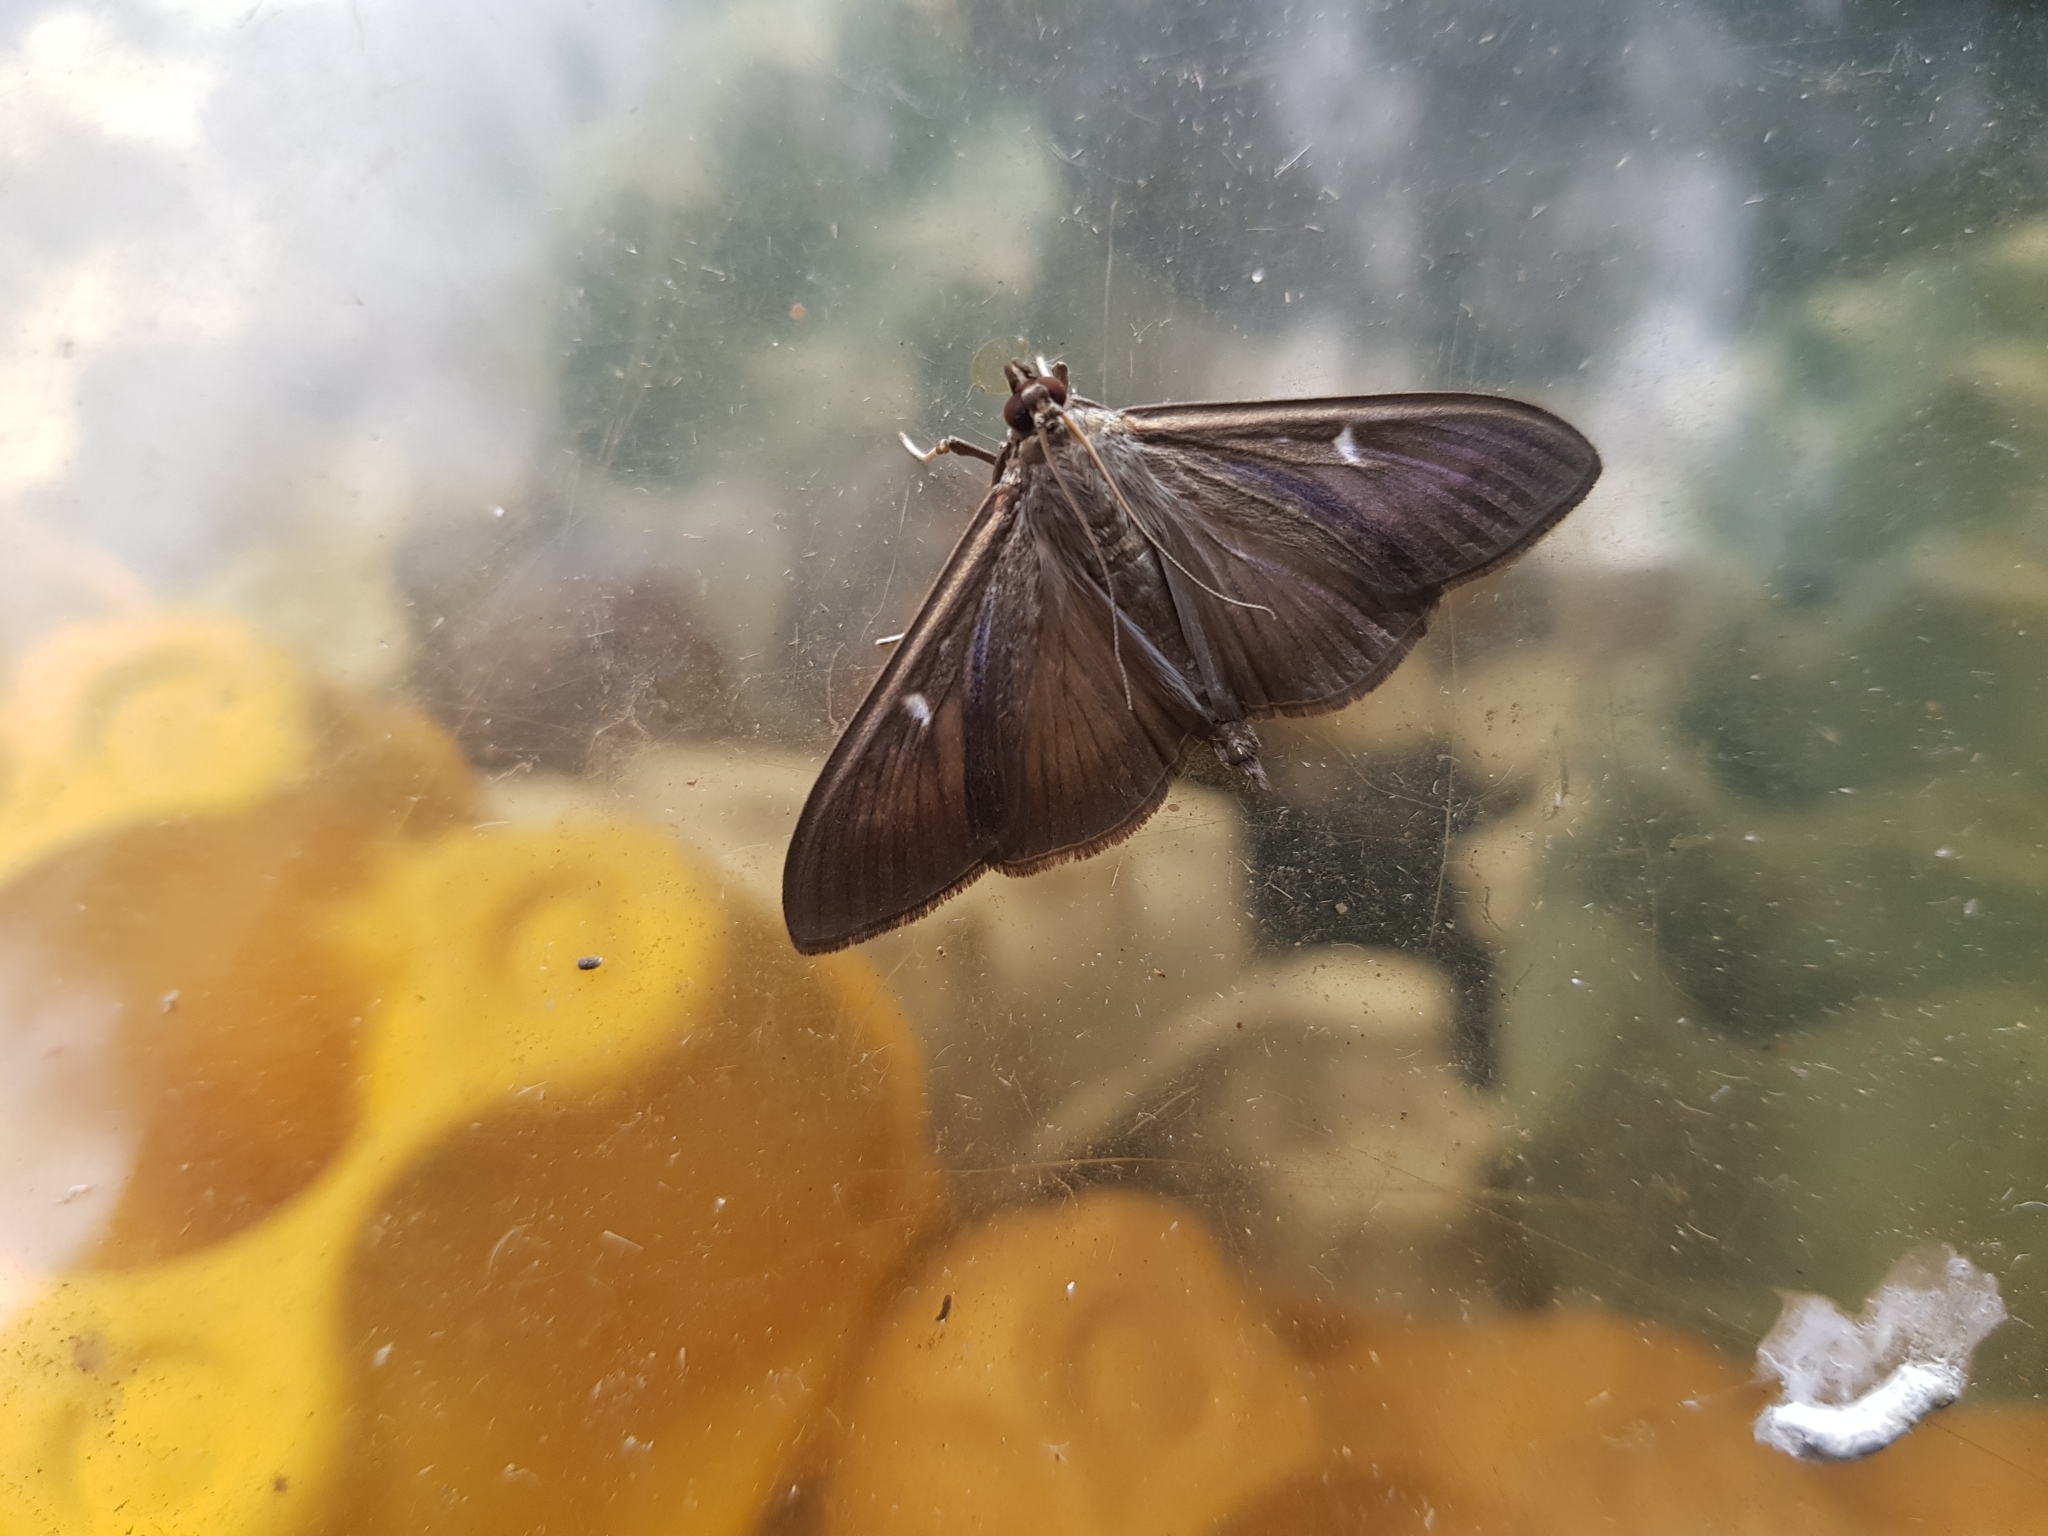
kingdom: Animalia
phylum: Arthropoda
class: Insecta
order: Lepidoptera
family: Crambidae
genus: Cydalima
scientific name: Cydalima perspectalis
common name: Box tree moth
